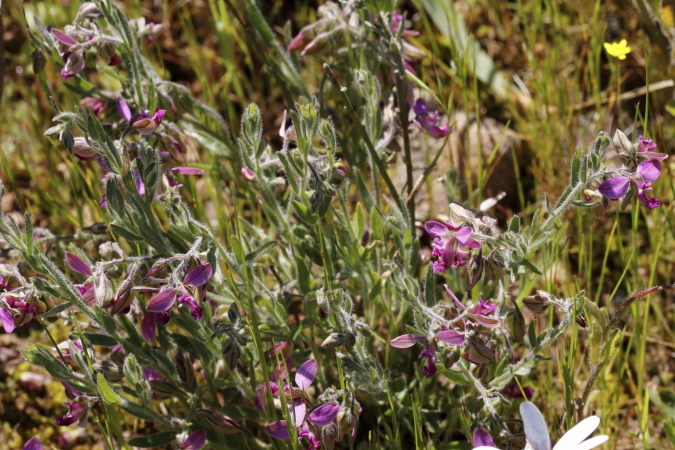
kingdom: Plantae
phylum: Tracheophyta
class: Magnoliopsida
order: Fabales
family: Polygalaceae
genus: Polygala
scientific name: Polygala scabra
